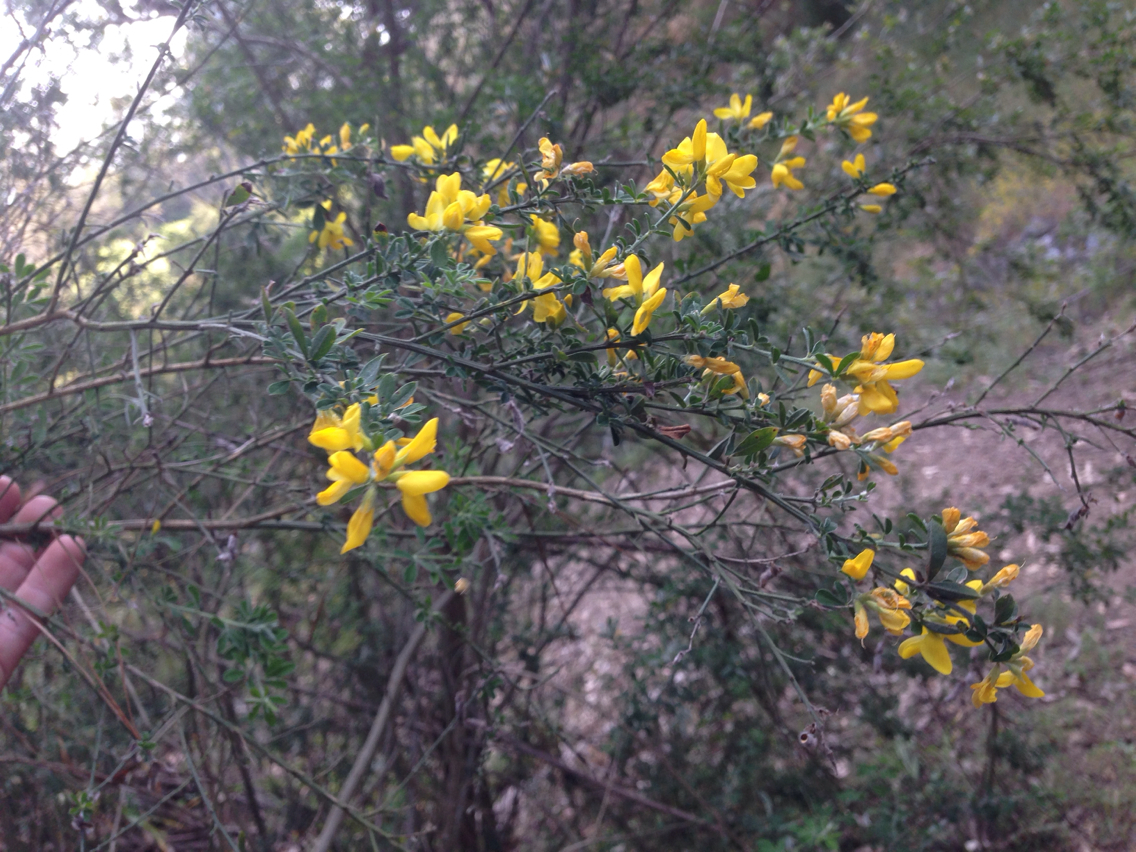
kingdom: Plantae
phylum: Tracheophyta
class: Magnoliopsida
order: Fabales
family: Fabaceae
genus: Genista
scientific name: Genista monspessulana
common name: Montpellier broom
